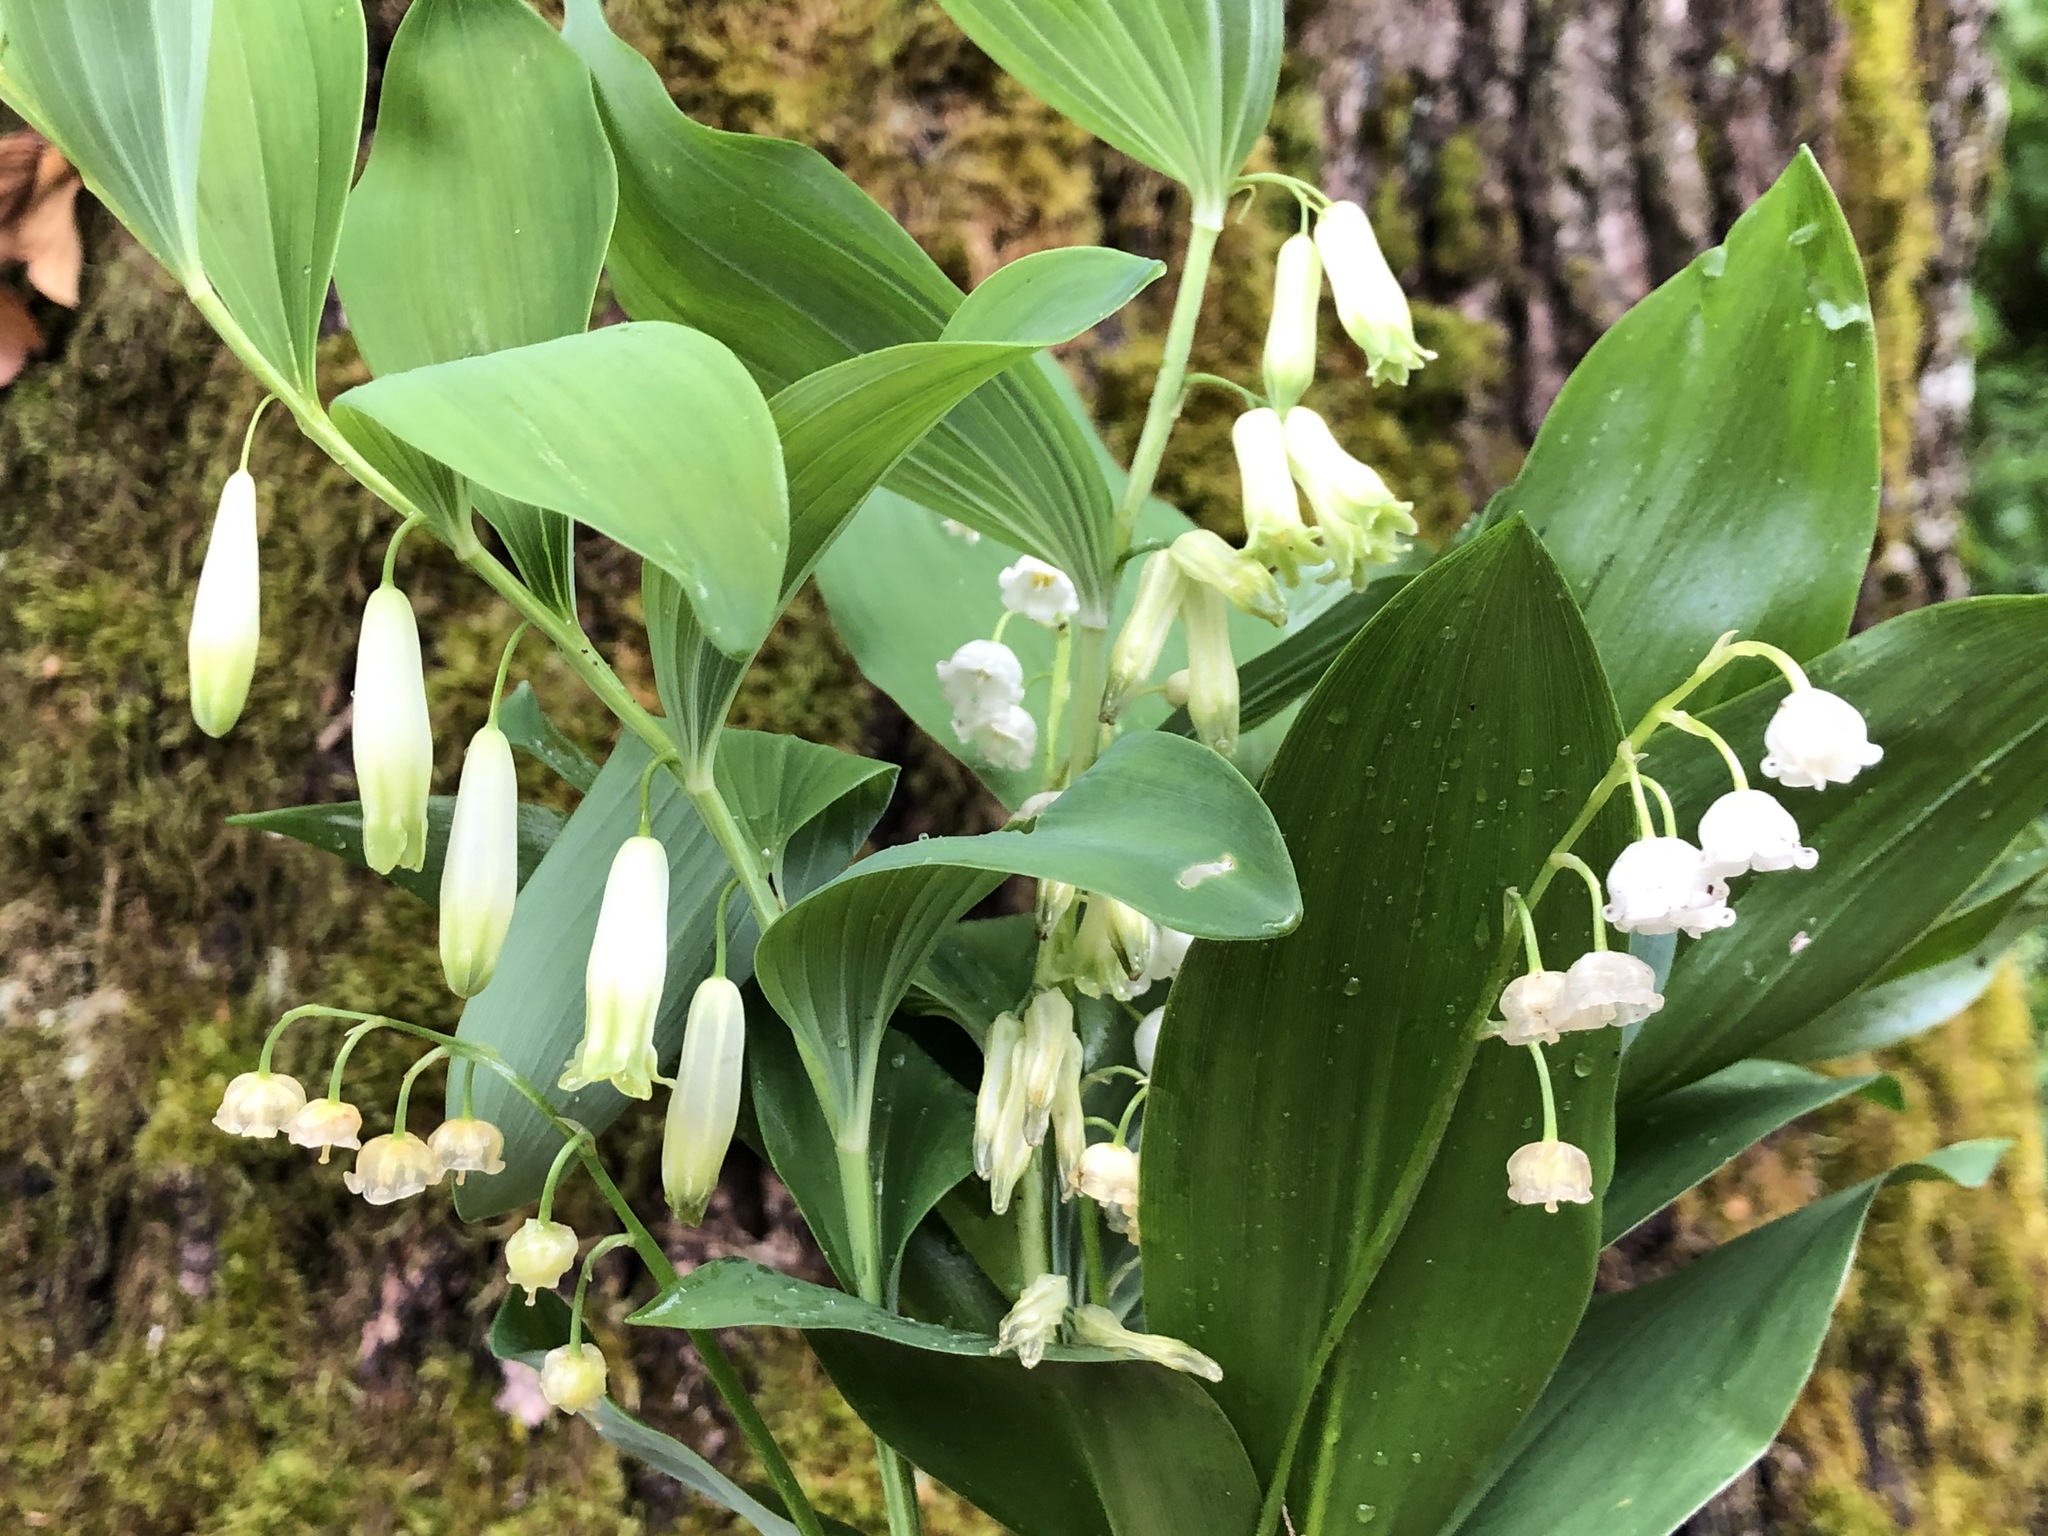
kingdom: Plantae
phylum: Tracheophyta
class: Liliopsida
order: Asparagales
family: Asparagaceae
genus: Convallaria
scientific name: Convallaria majalis
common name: Lily-of-the-valley
